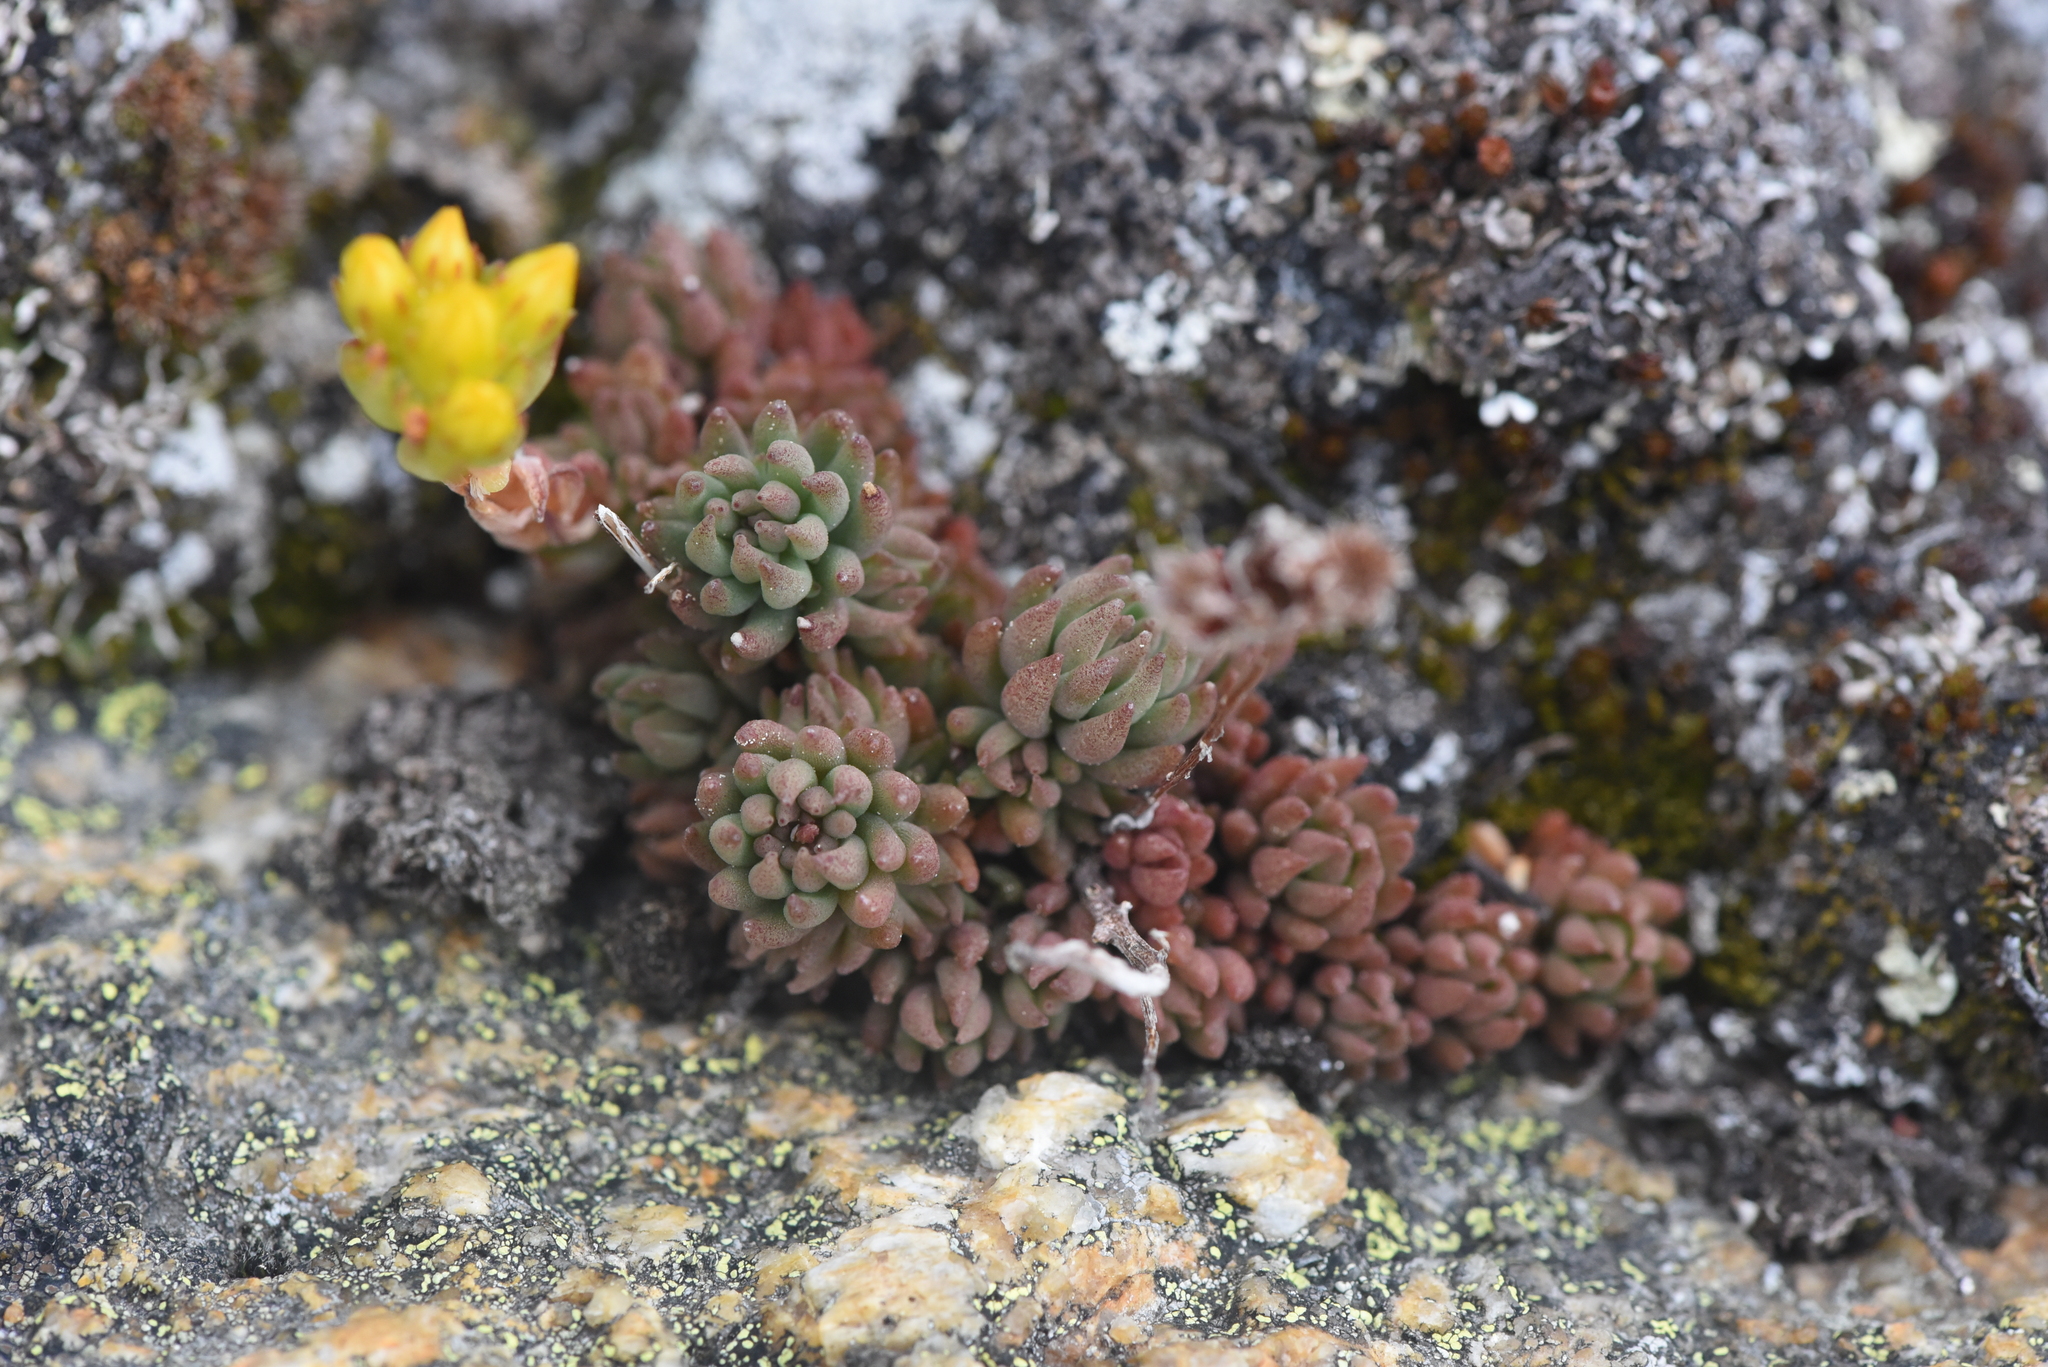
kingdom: Plantae
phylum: Tracheophyta
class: Magnoliopsida
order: Saxifragales
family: Crassulaceae
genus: Sedum
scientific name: Sedum lanceolatum
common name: Common stonecrop
